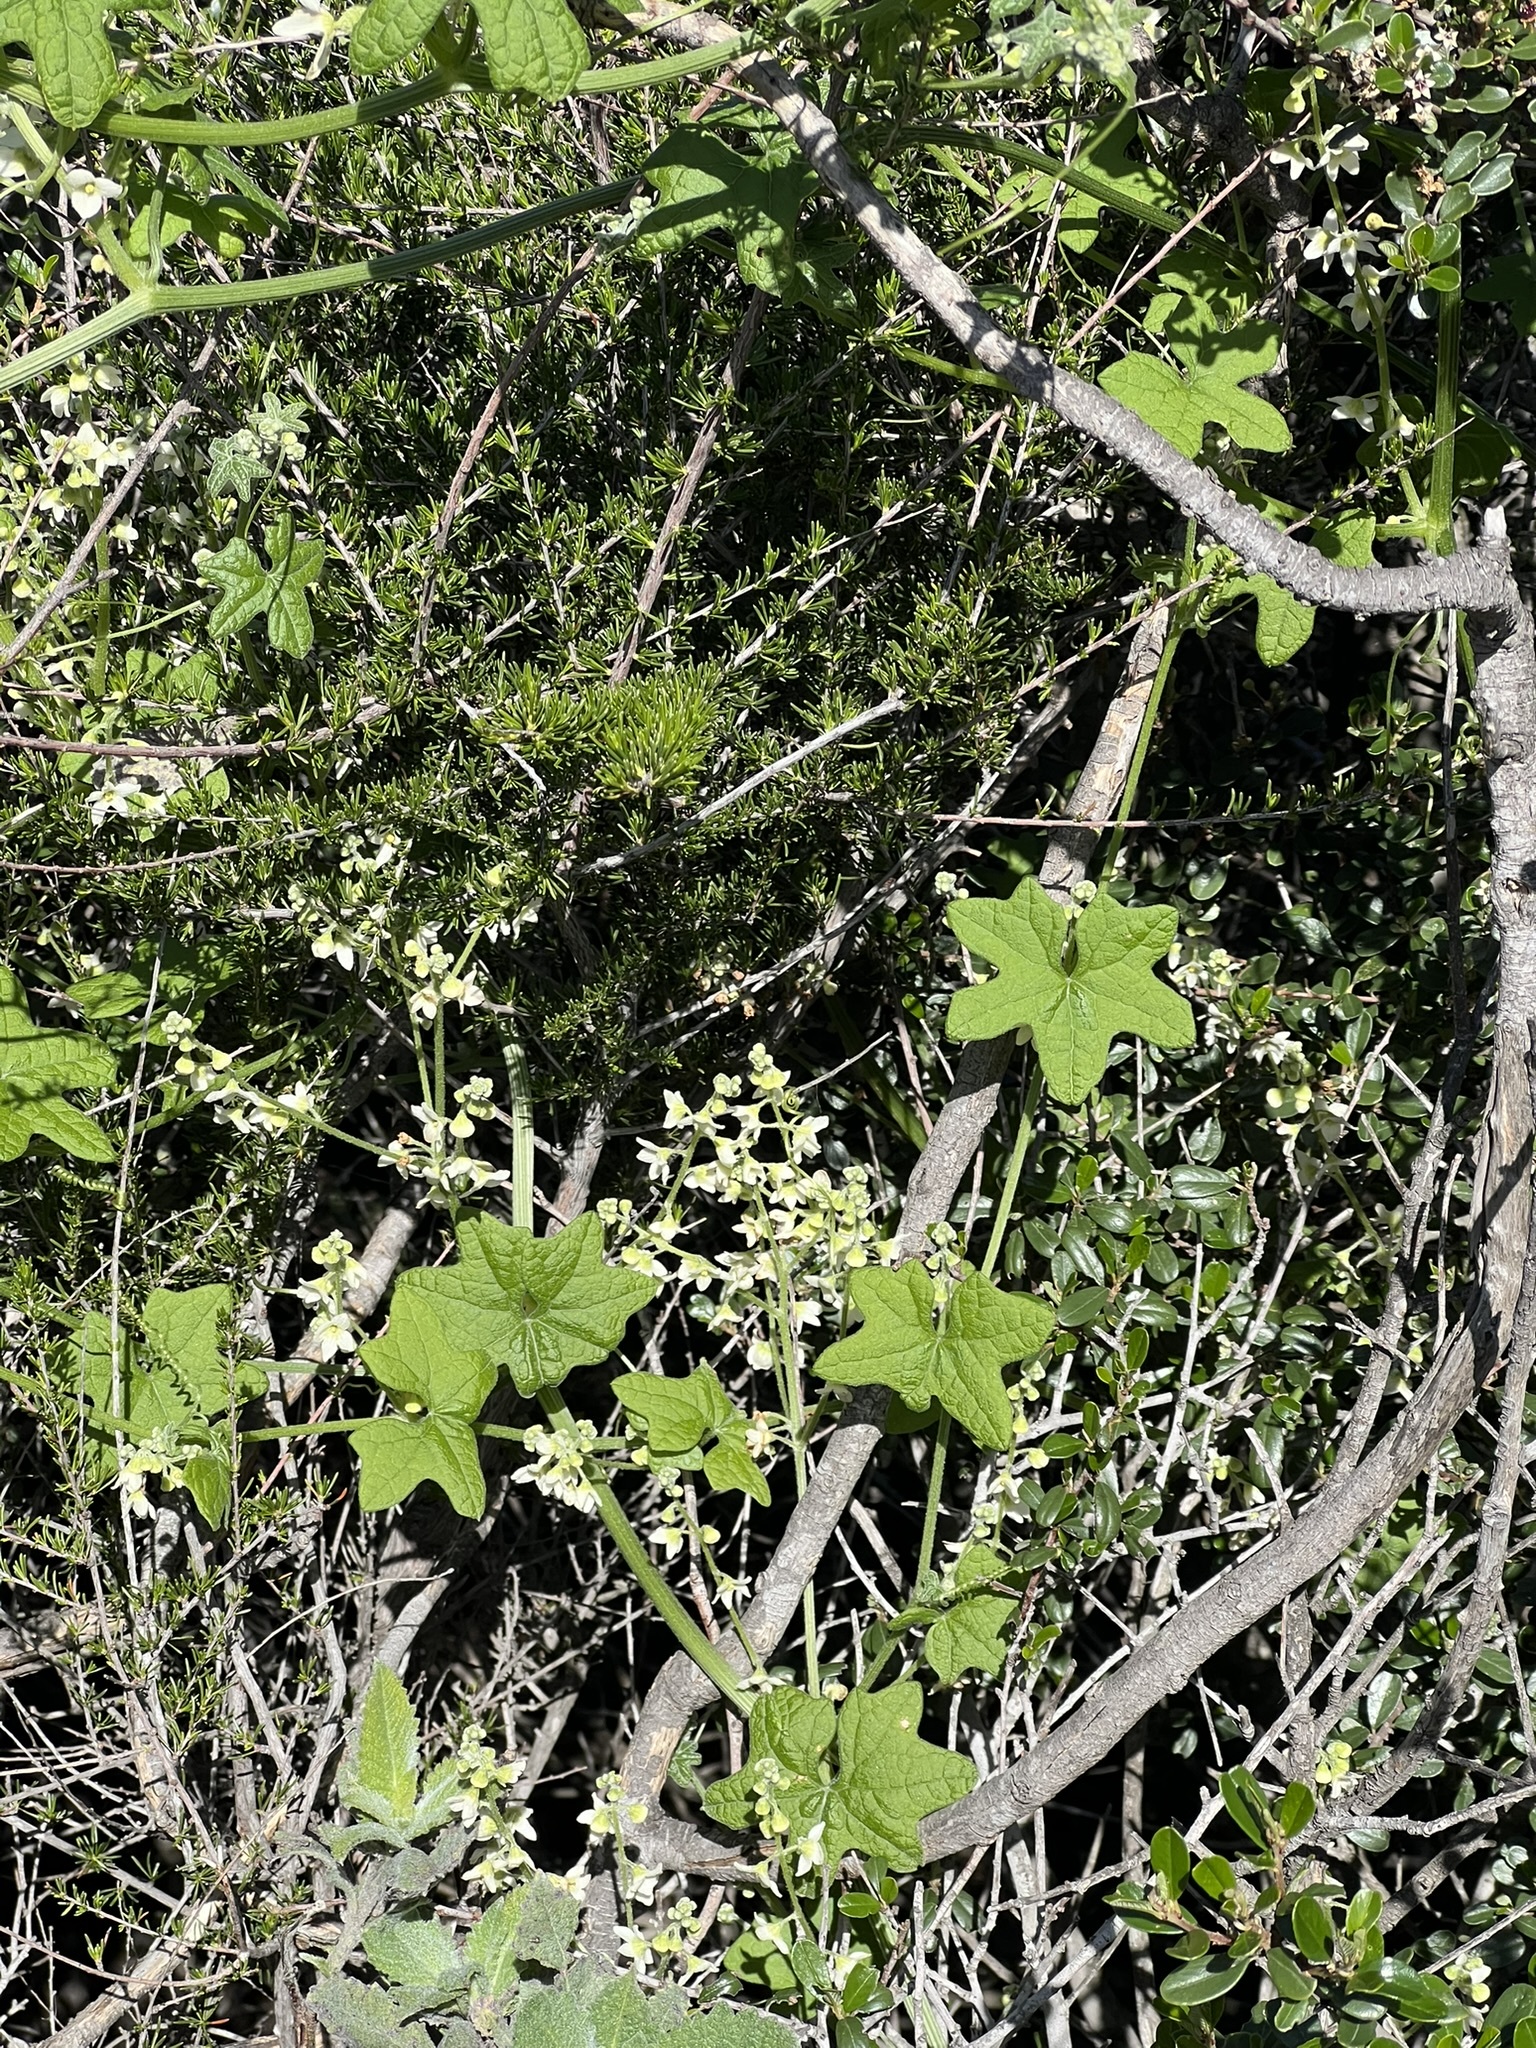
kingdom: Plantae
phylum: Tracheophyta
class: Magnoliopsida
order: Cucurbitales
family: Cucurbitaceae
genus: Marah
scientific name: Marah macrocarpa
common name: Cucamonga manroot
